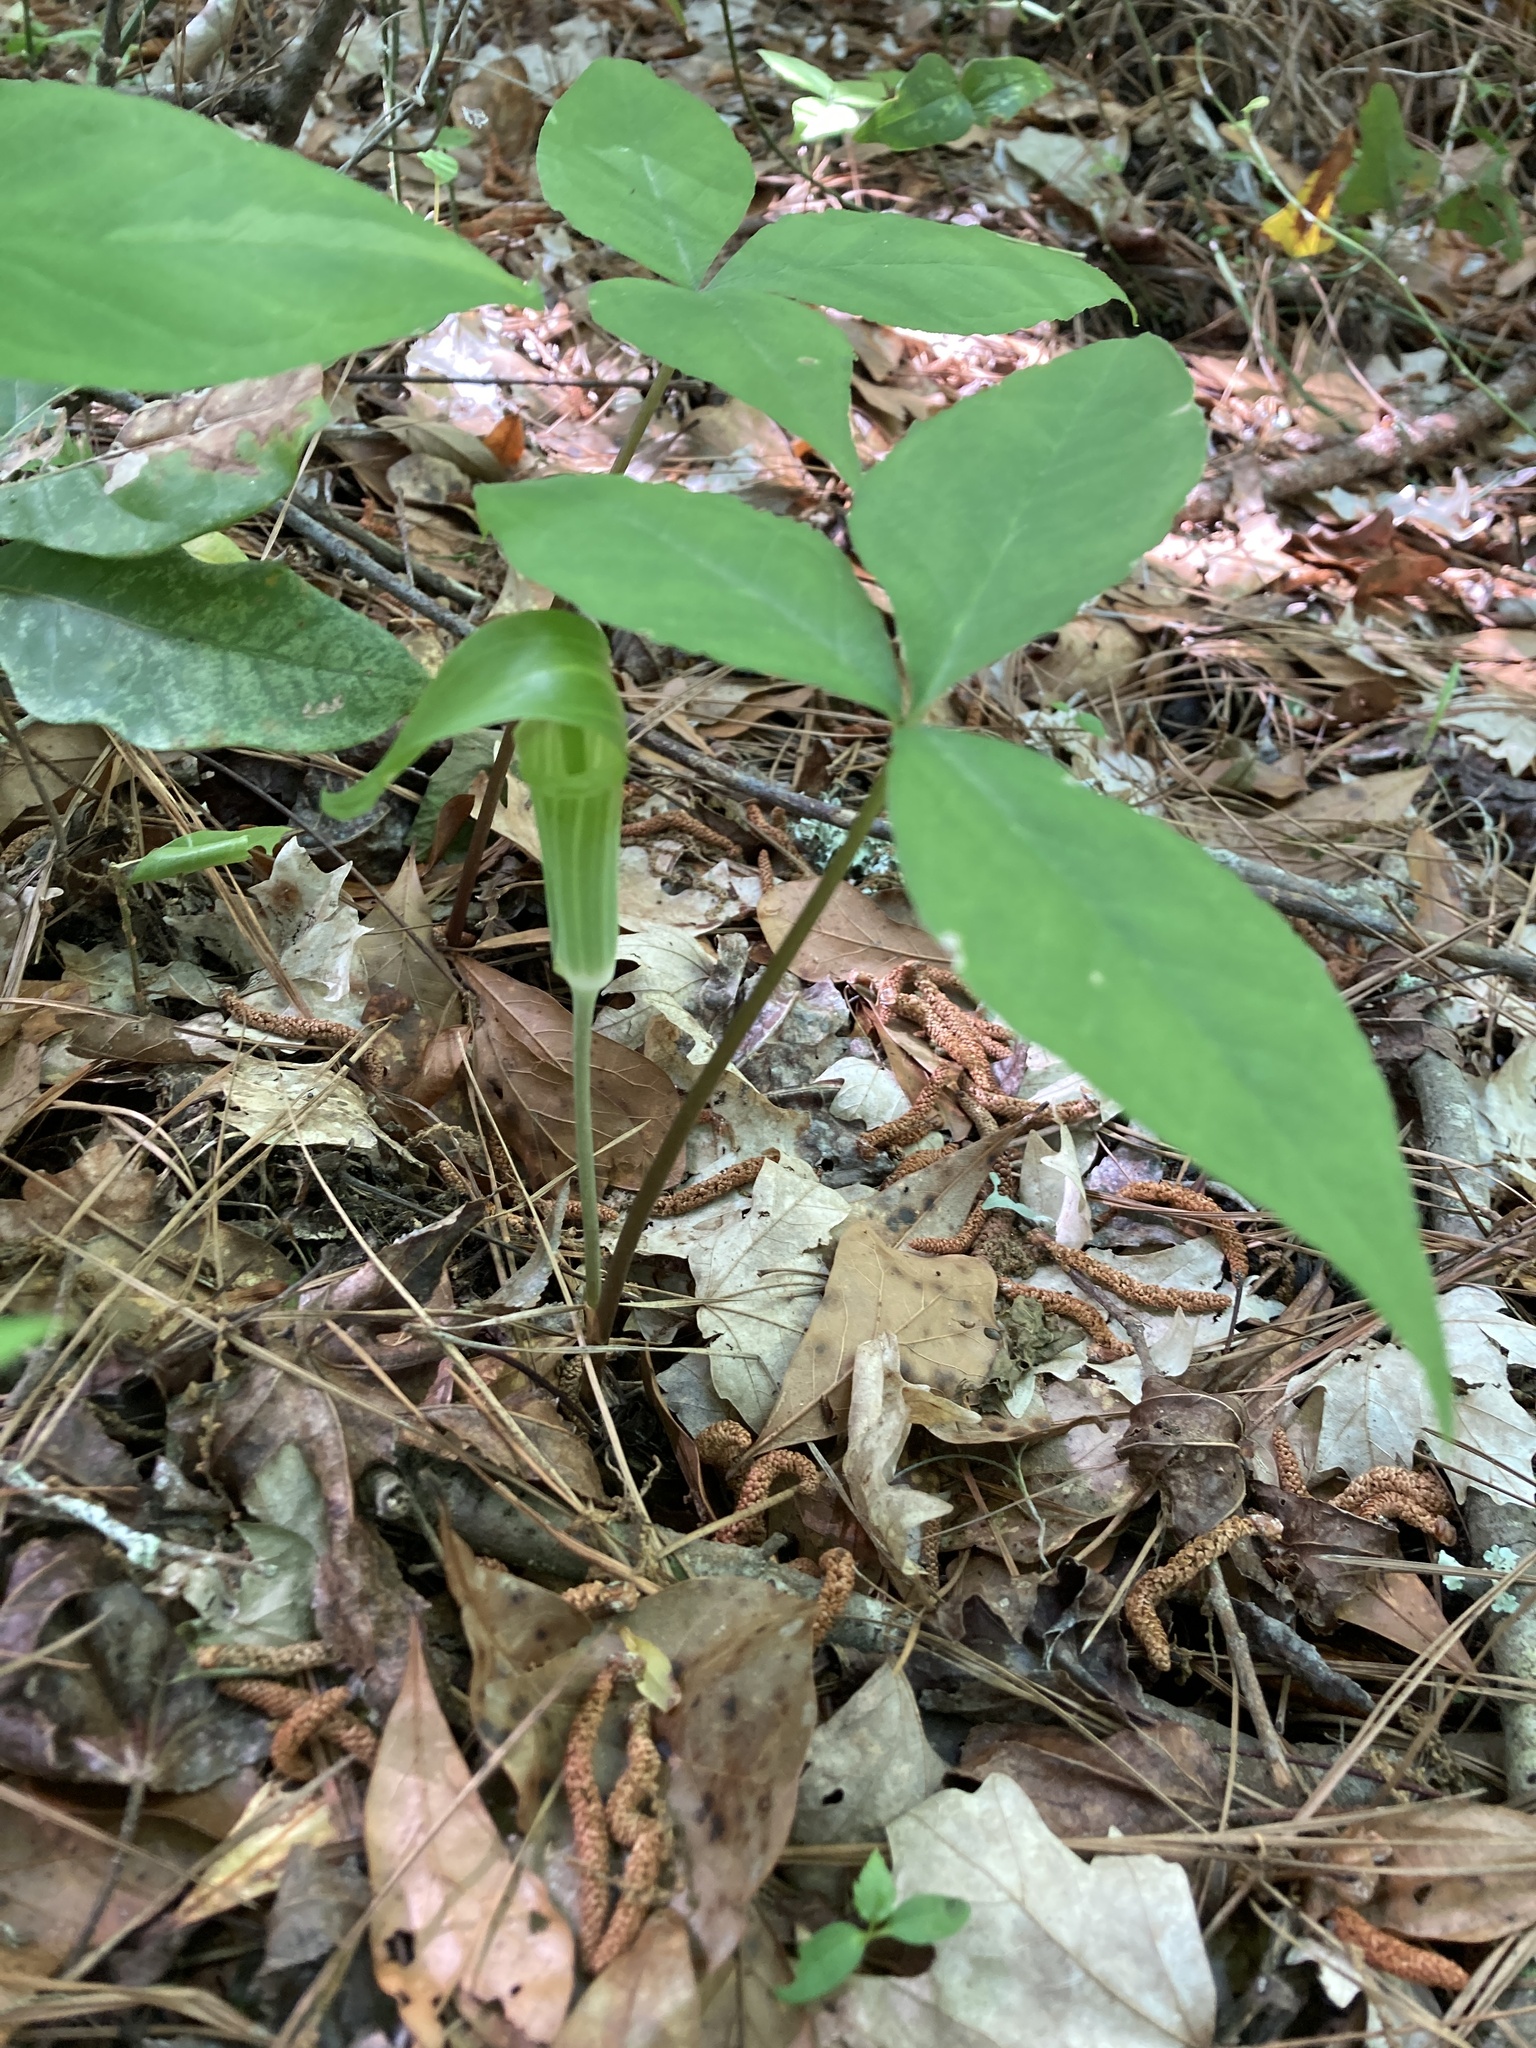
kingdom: Plantae
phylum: Tracheophyta
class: Liliopsida
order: Alismatales
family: Araceae
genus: Arisaema
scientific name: Arisaema acuminatum
